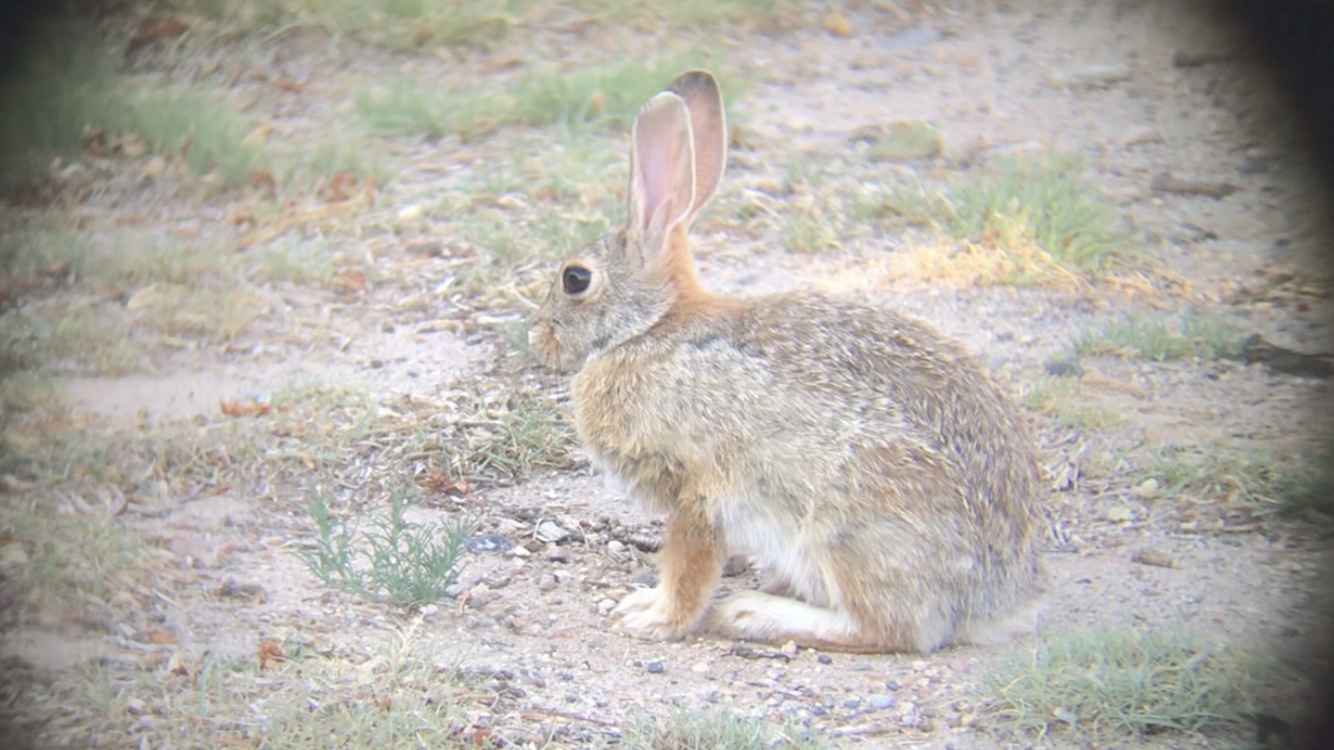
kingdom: Animalia
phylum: Chordata
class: Mammalia
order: Lagomorpha
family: Leporidae
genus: Sylvilagus
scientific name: Sylvilagus audubonii
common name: Desert cottontail
